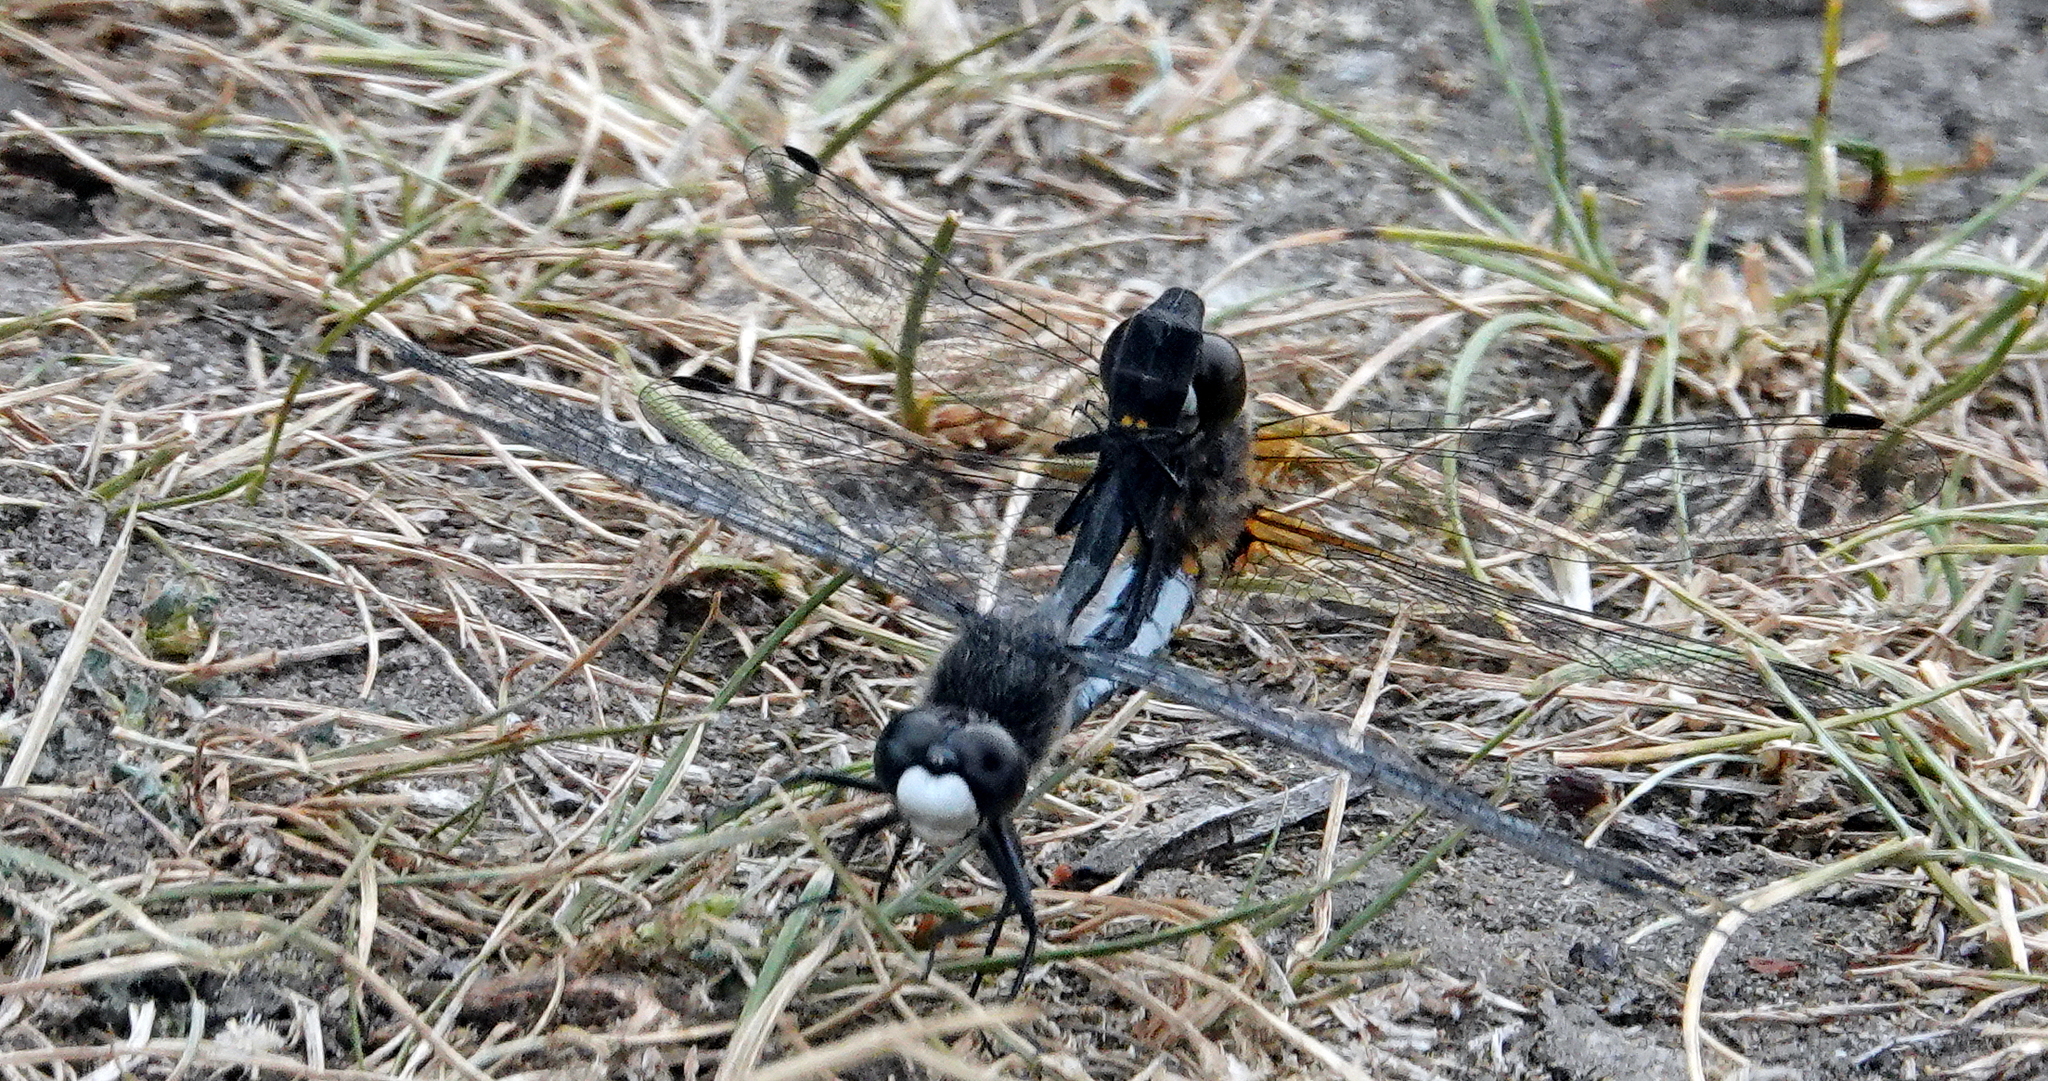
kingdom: Animalia
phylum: Arthropoda
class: Insecta
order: Odonata
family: Libellulidae
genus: Leucorrhinia
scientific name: Leucorrhinia intacta
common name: Dot-tailed whiteface
